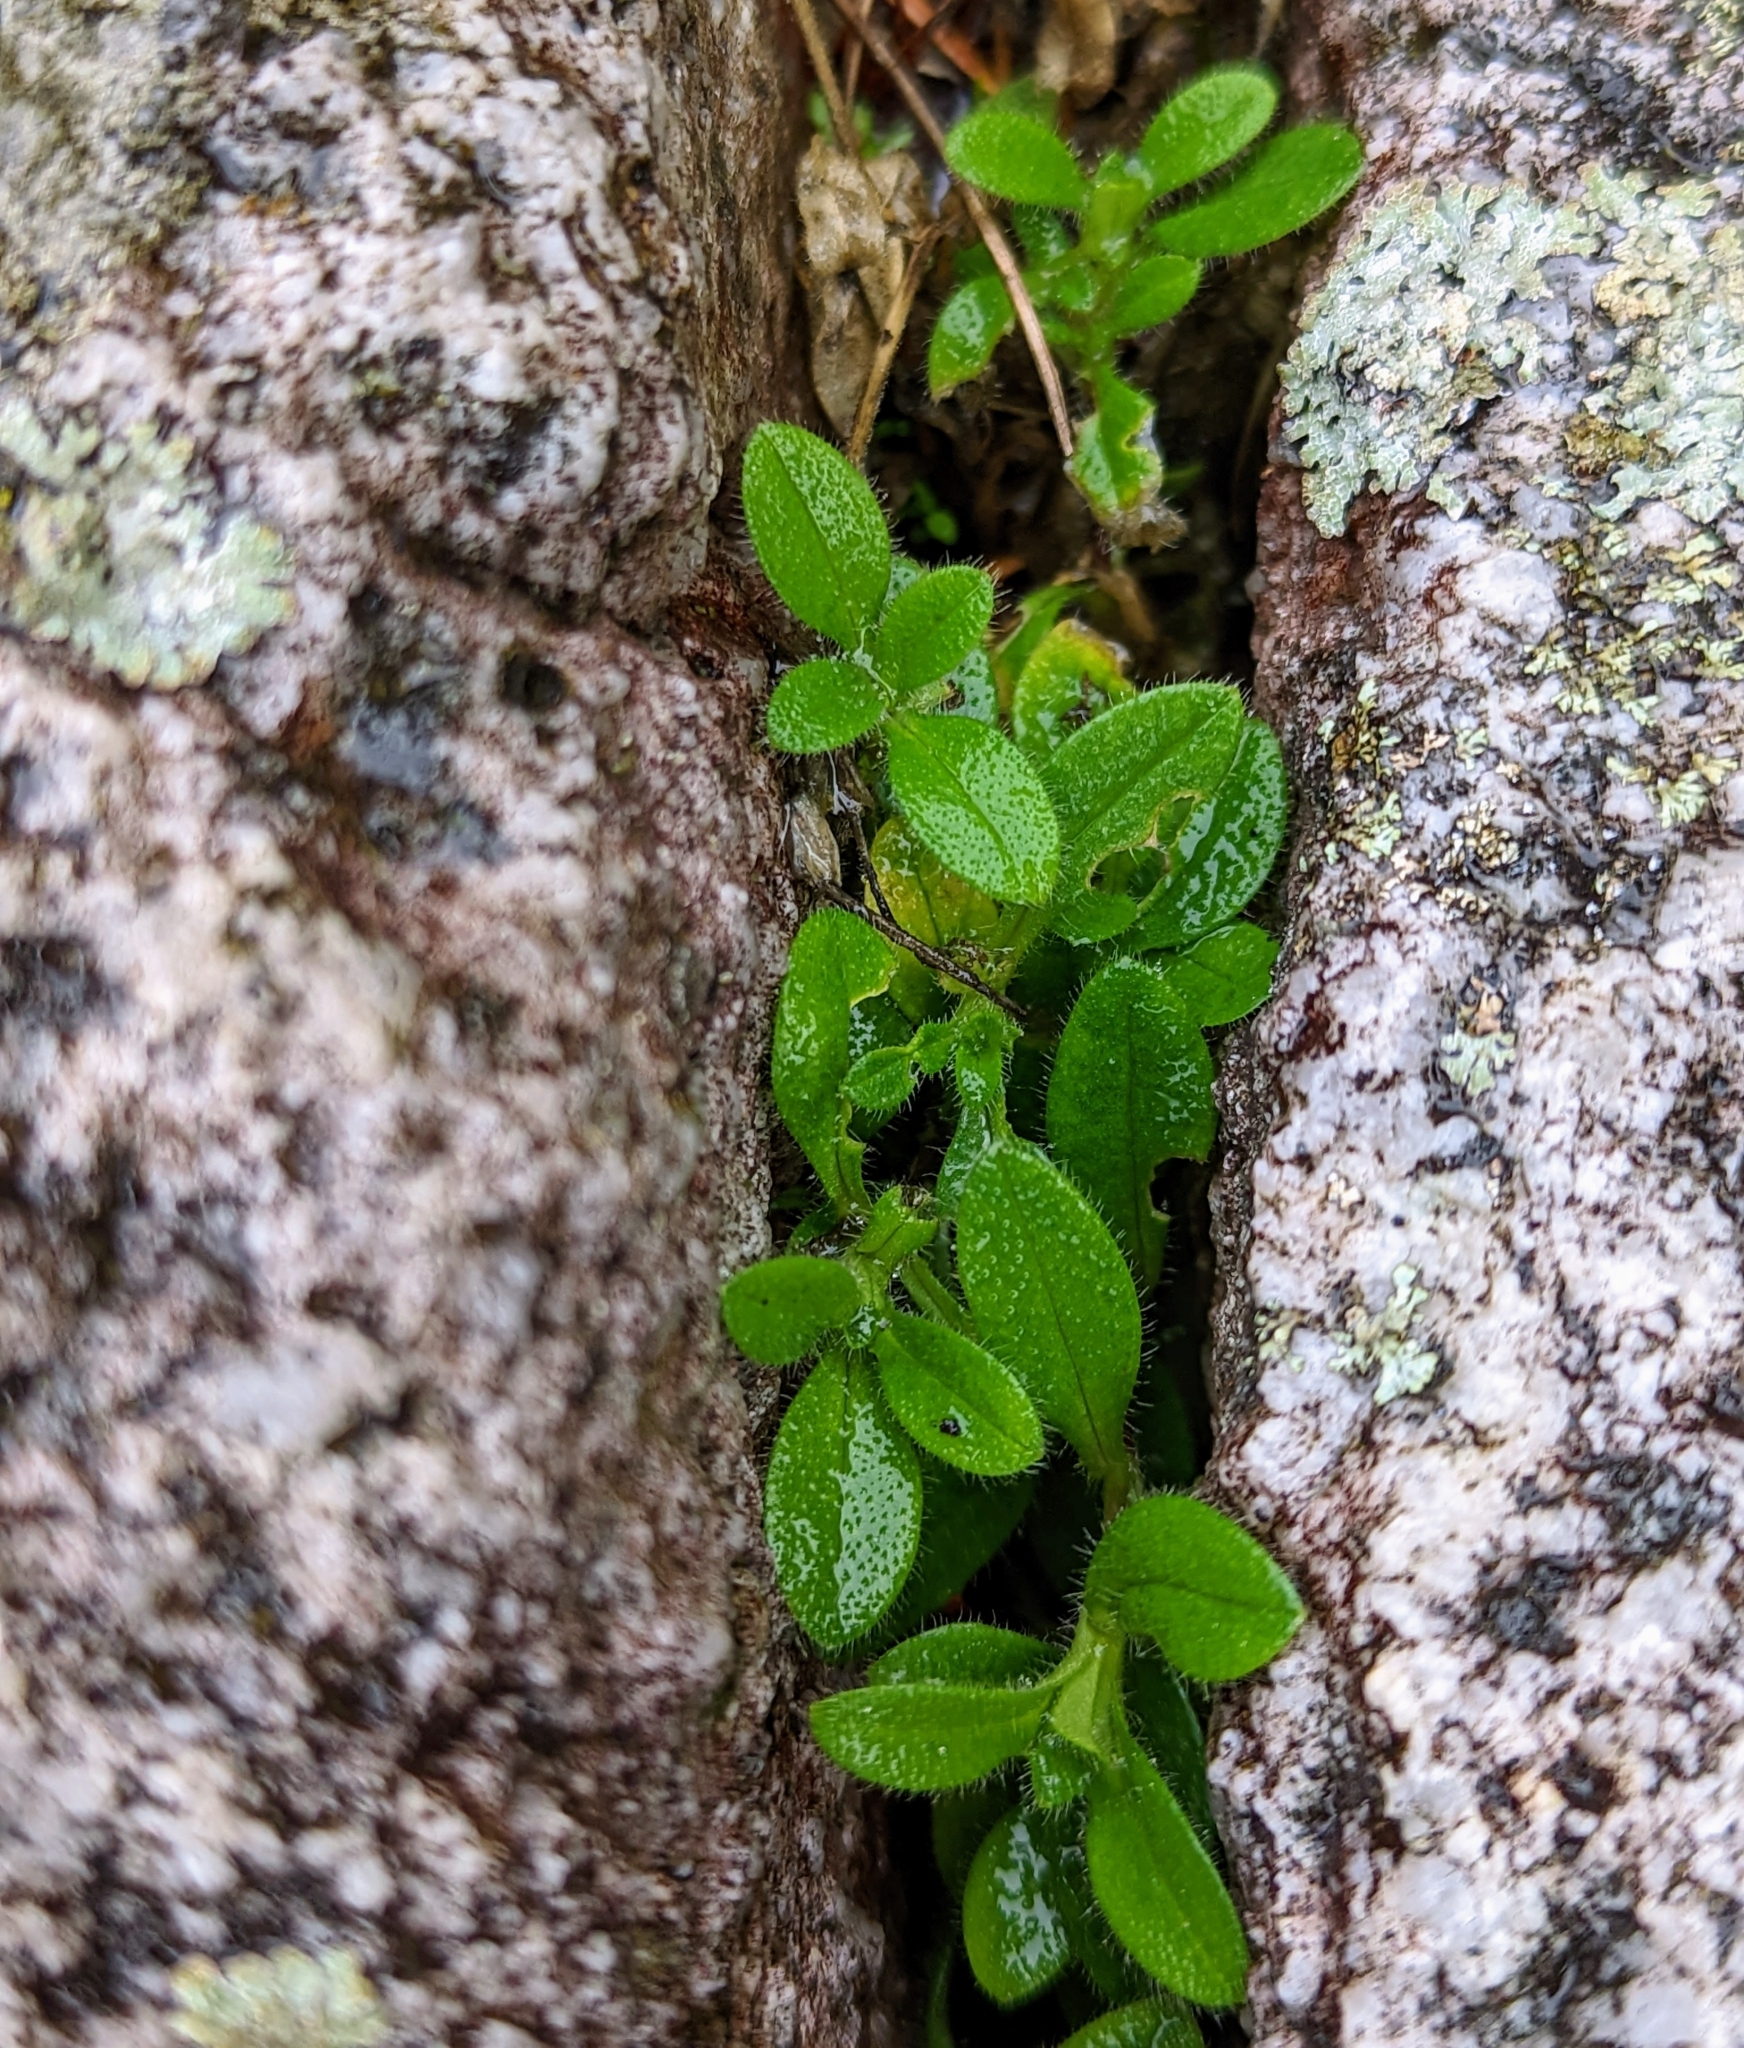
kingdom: Plantae
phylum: Tracheophyta
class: Magnoliopsida
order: Caryophyllales
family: Caryophyllaceae
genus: Cerastium
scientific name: Cerastium fontanum
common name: Common mouse-ear
